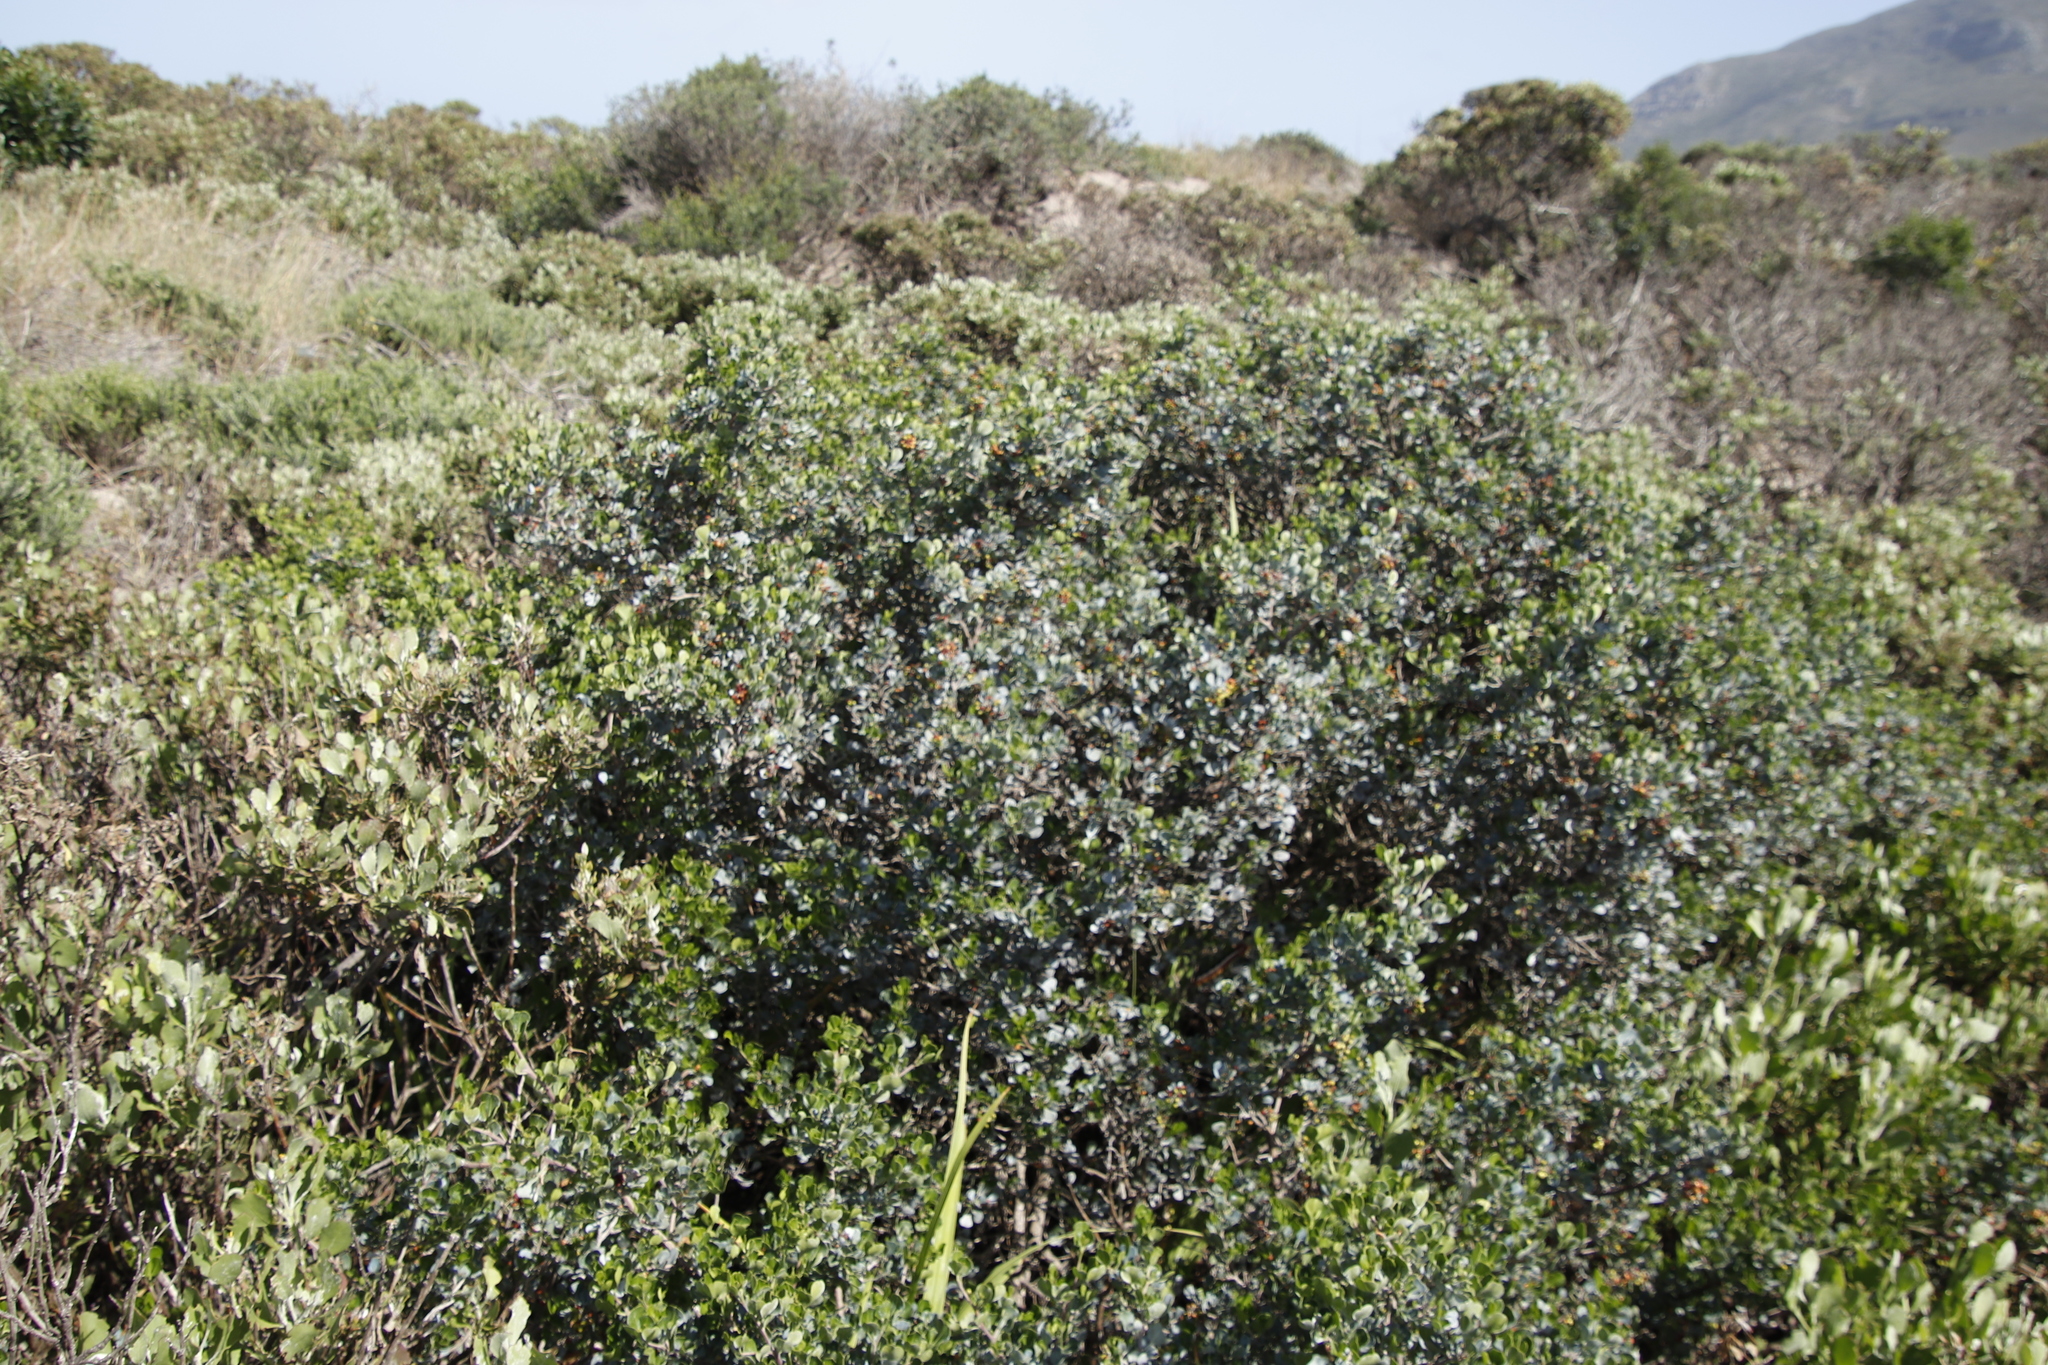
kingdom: Plantae
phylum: Tracheophyta
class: Magnoliopsida
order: Sapindales
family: Anacardiaceae
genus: Searsia
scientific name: Searsia glauca
